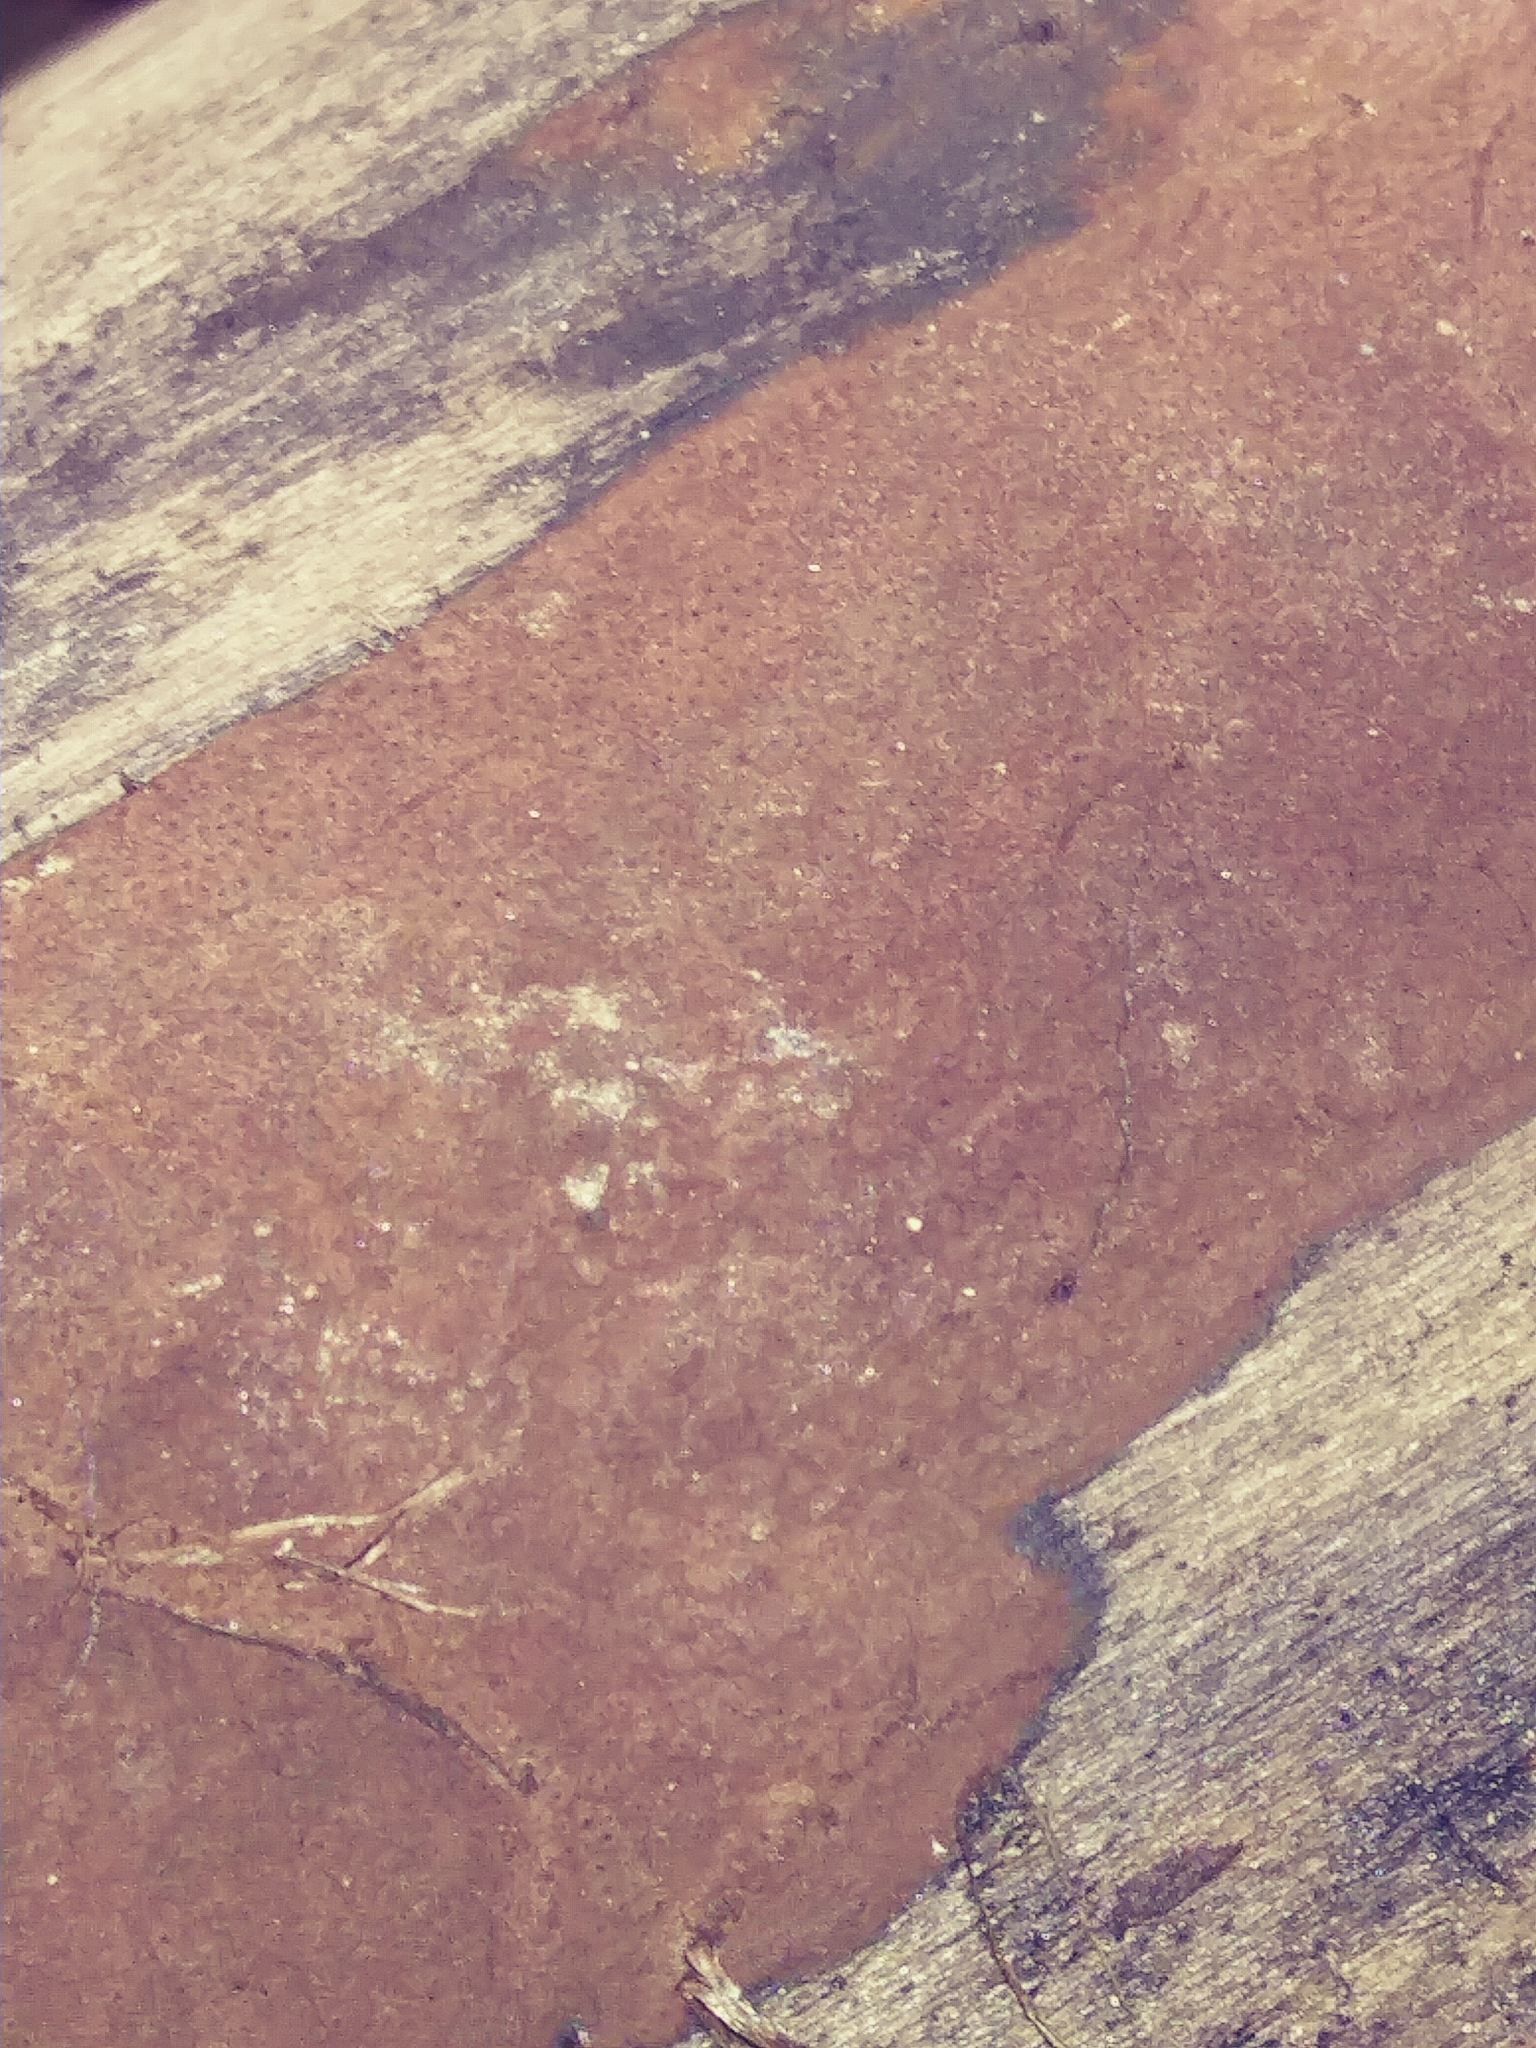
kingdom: Fungi
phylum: Ascomycota
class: Sordariomycetes
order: Xylariales
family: Hypoxylaceae
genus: Hypoxylon
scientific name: Hypoxylon rubiginosum
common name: Rusty woodwart
